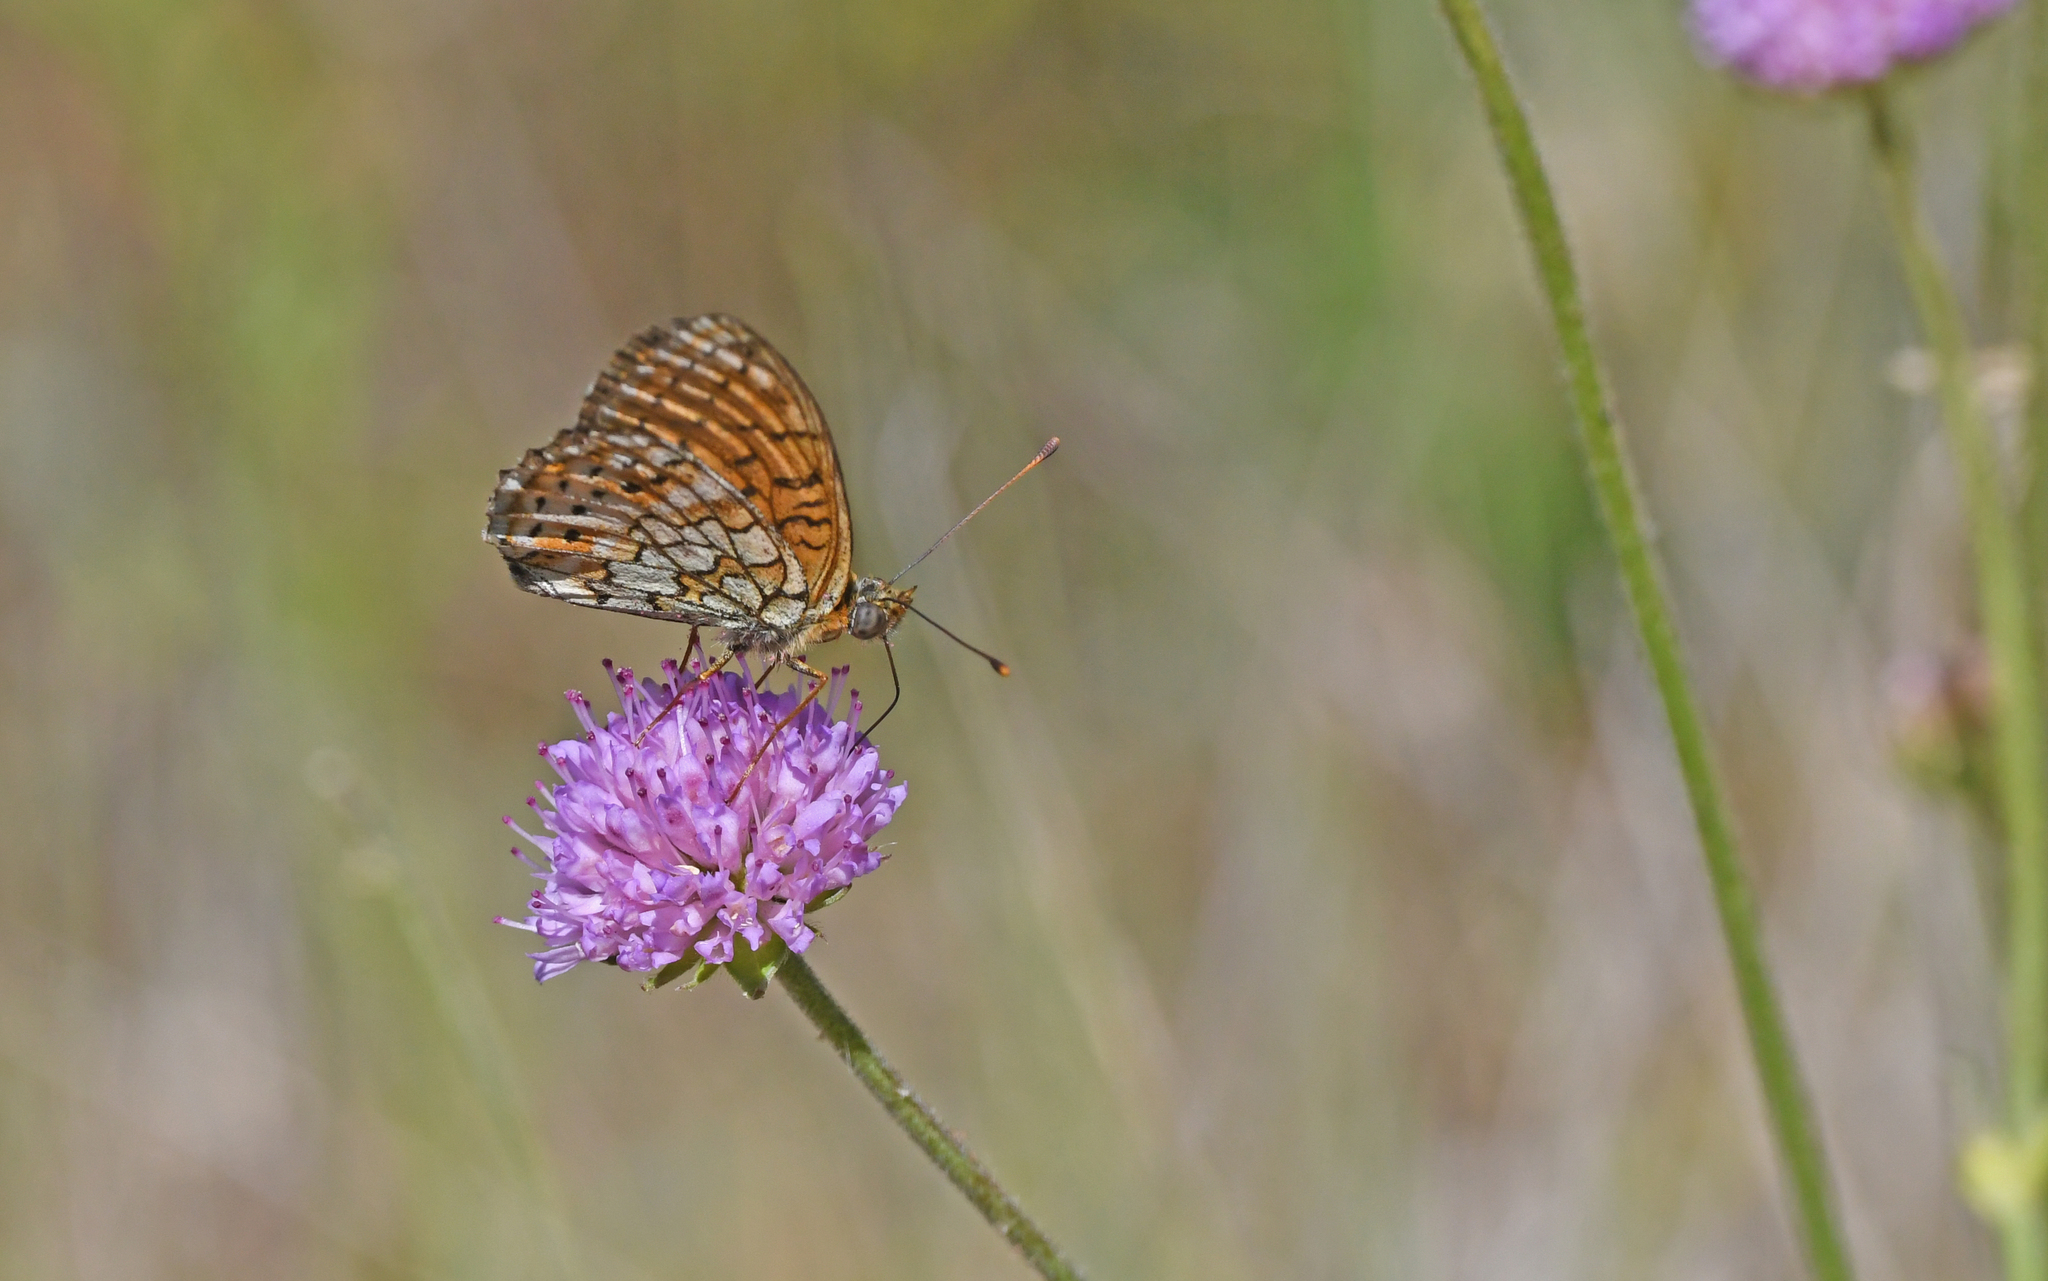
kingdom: Animalia
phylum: Arthropoda
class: Insecta
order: Lepidoptera
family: Nymphalidae
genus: Brenthis
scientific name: Brenthis hecate
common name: Twin-spot fritillary
